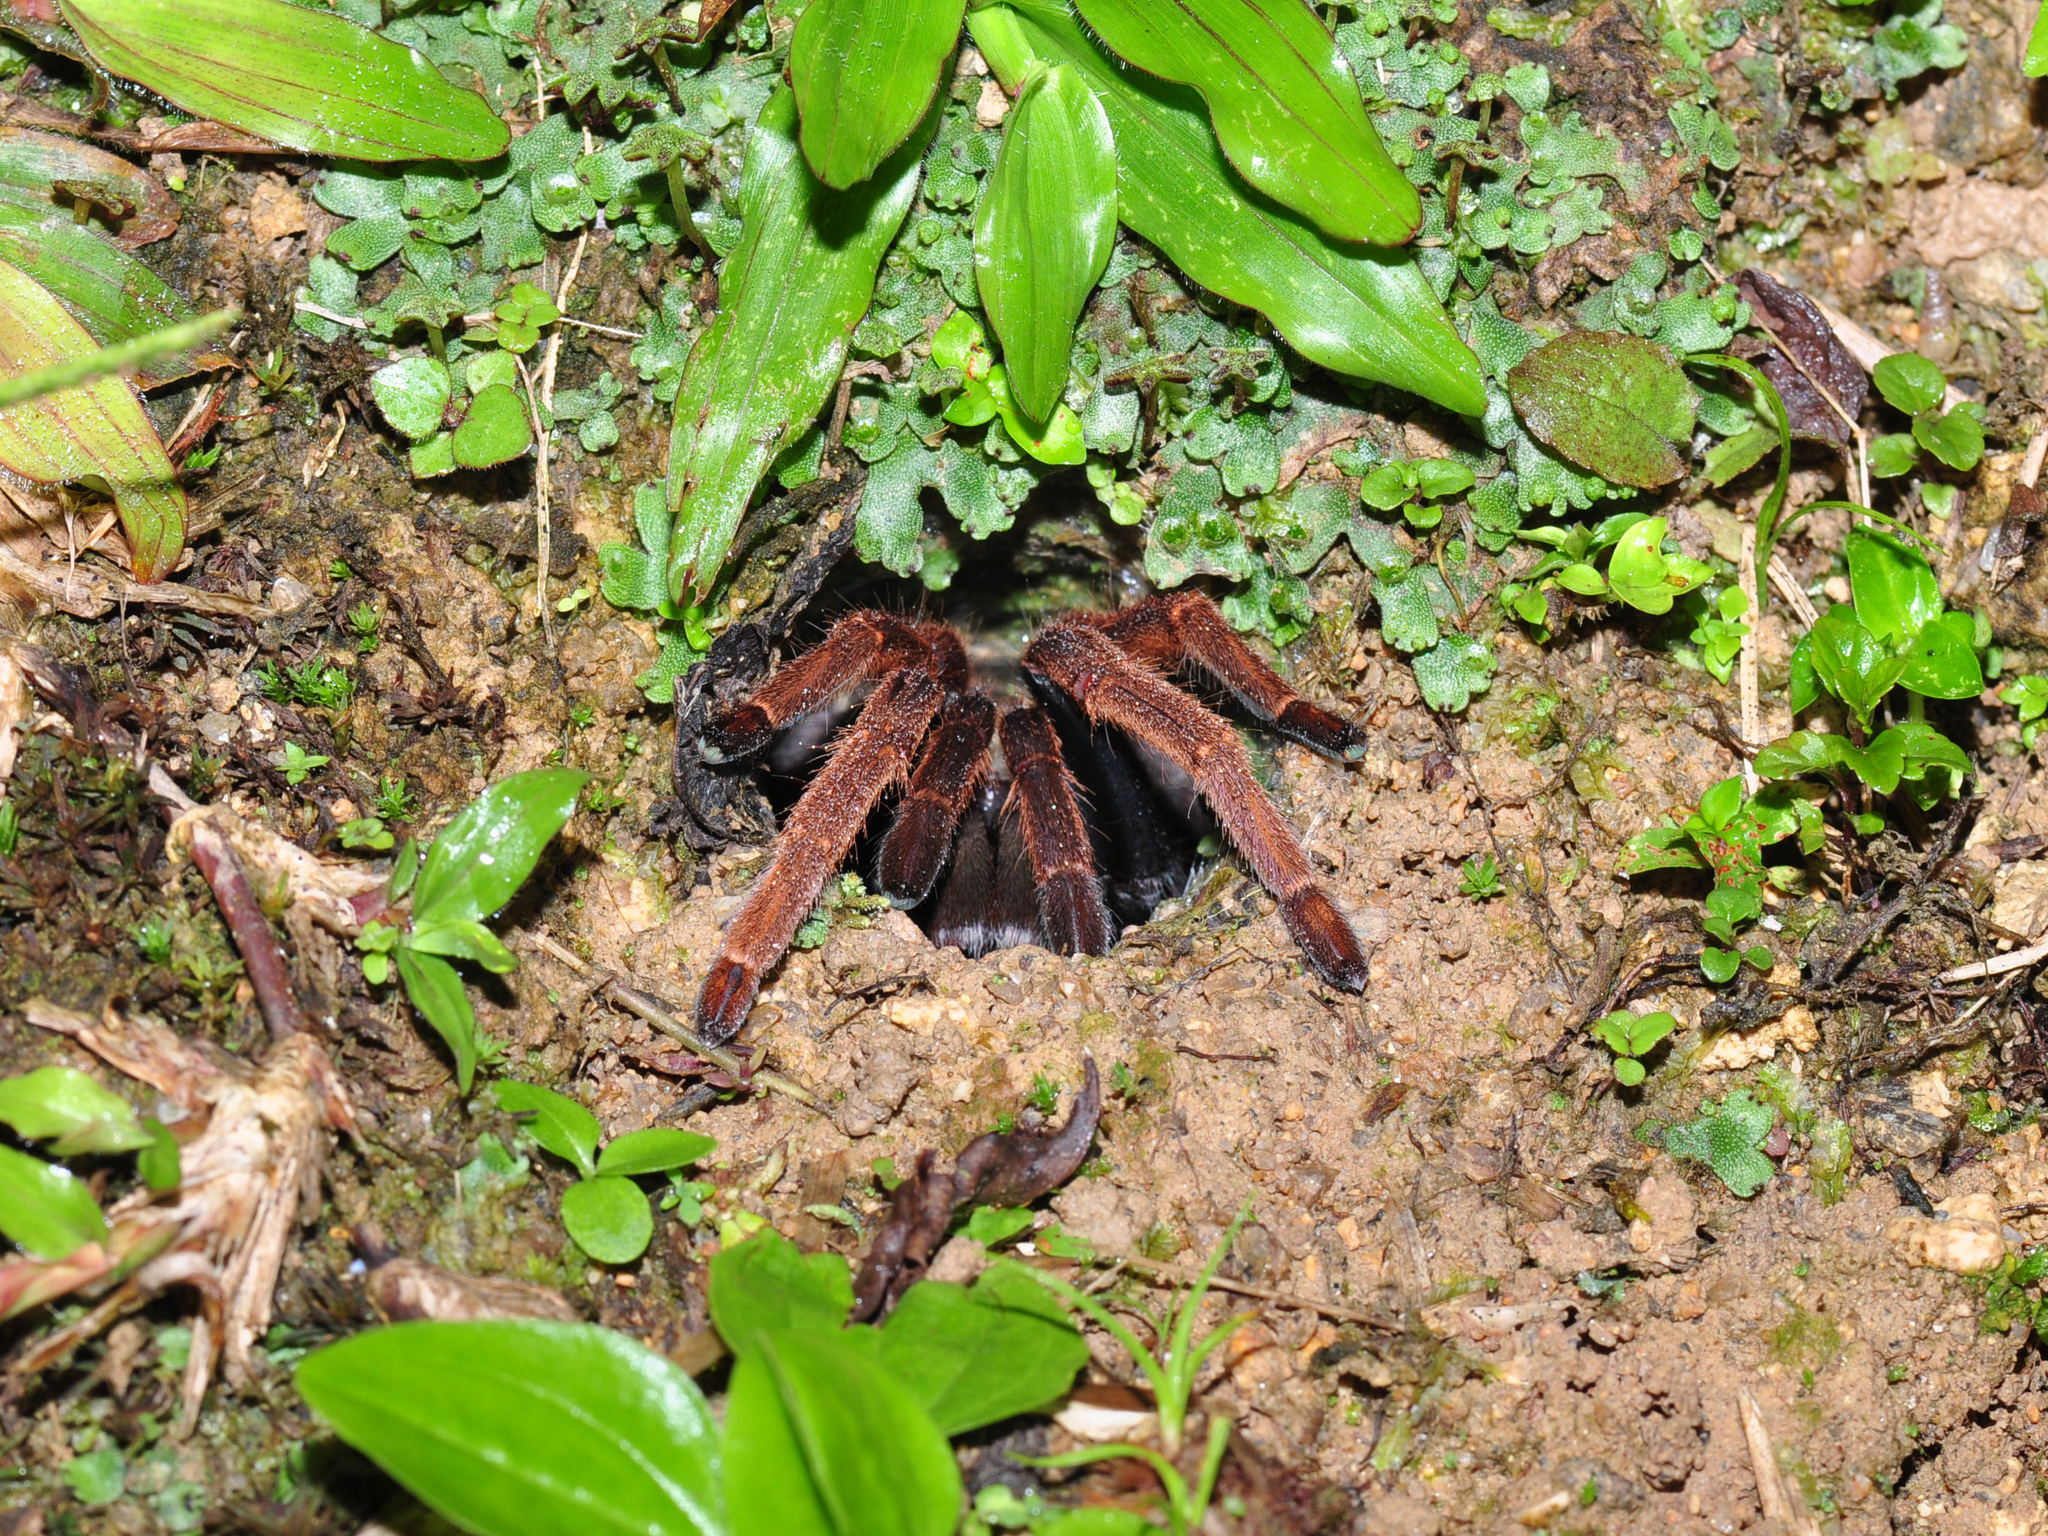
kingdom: Animalia
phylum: Arthropoda
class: Arachnida
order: Araneae
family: Theraphosidae
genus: Coremiocnemis
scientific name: Coremiocnemis hoggi
